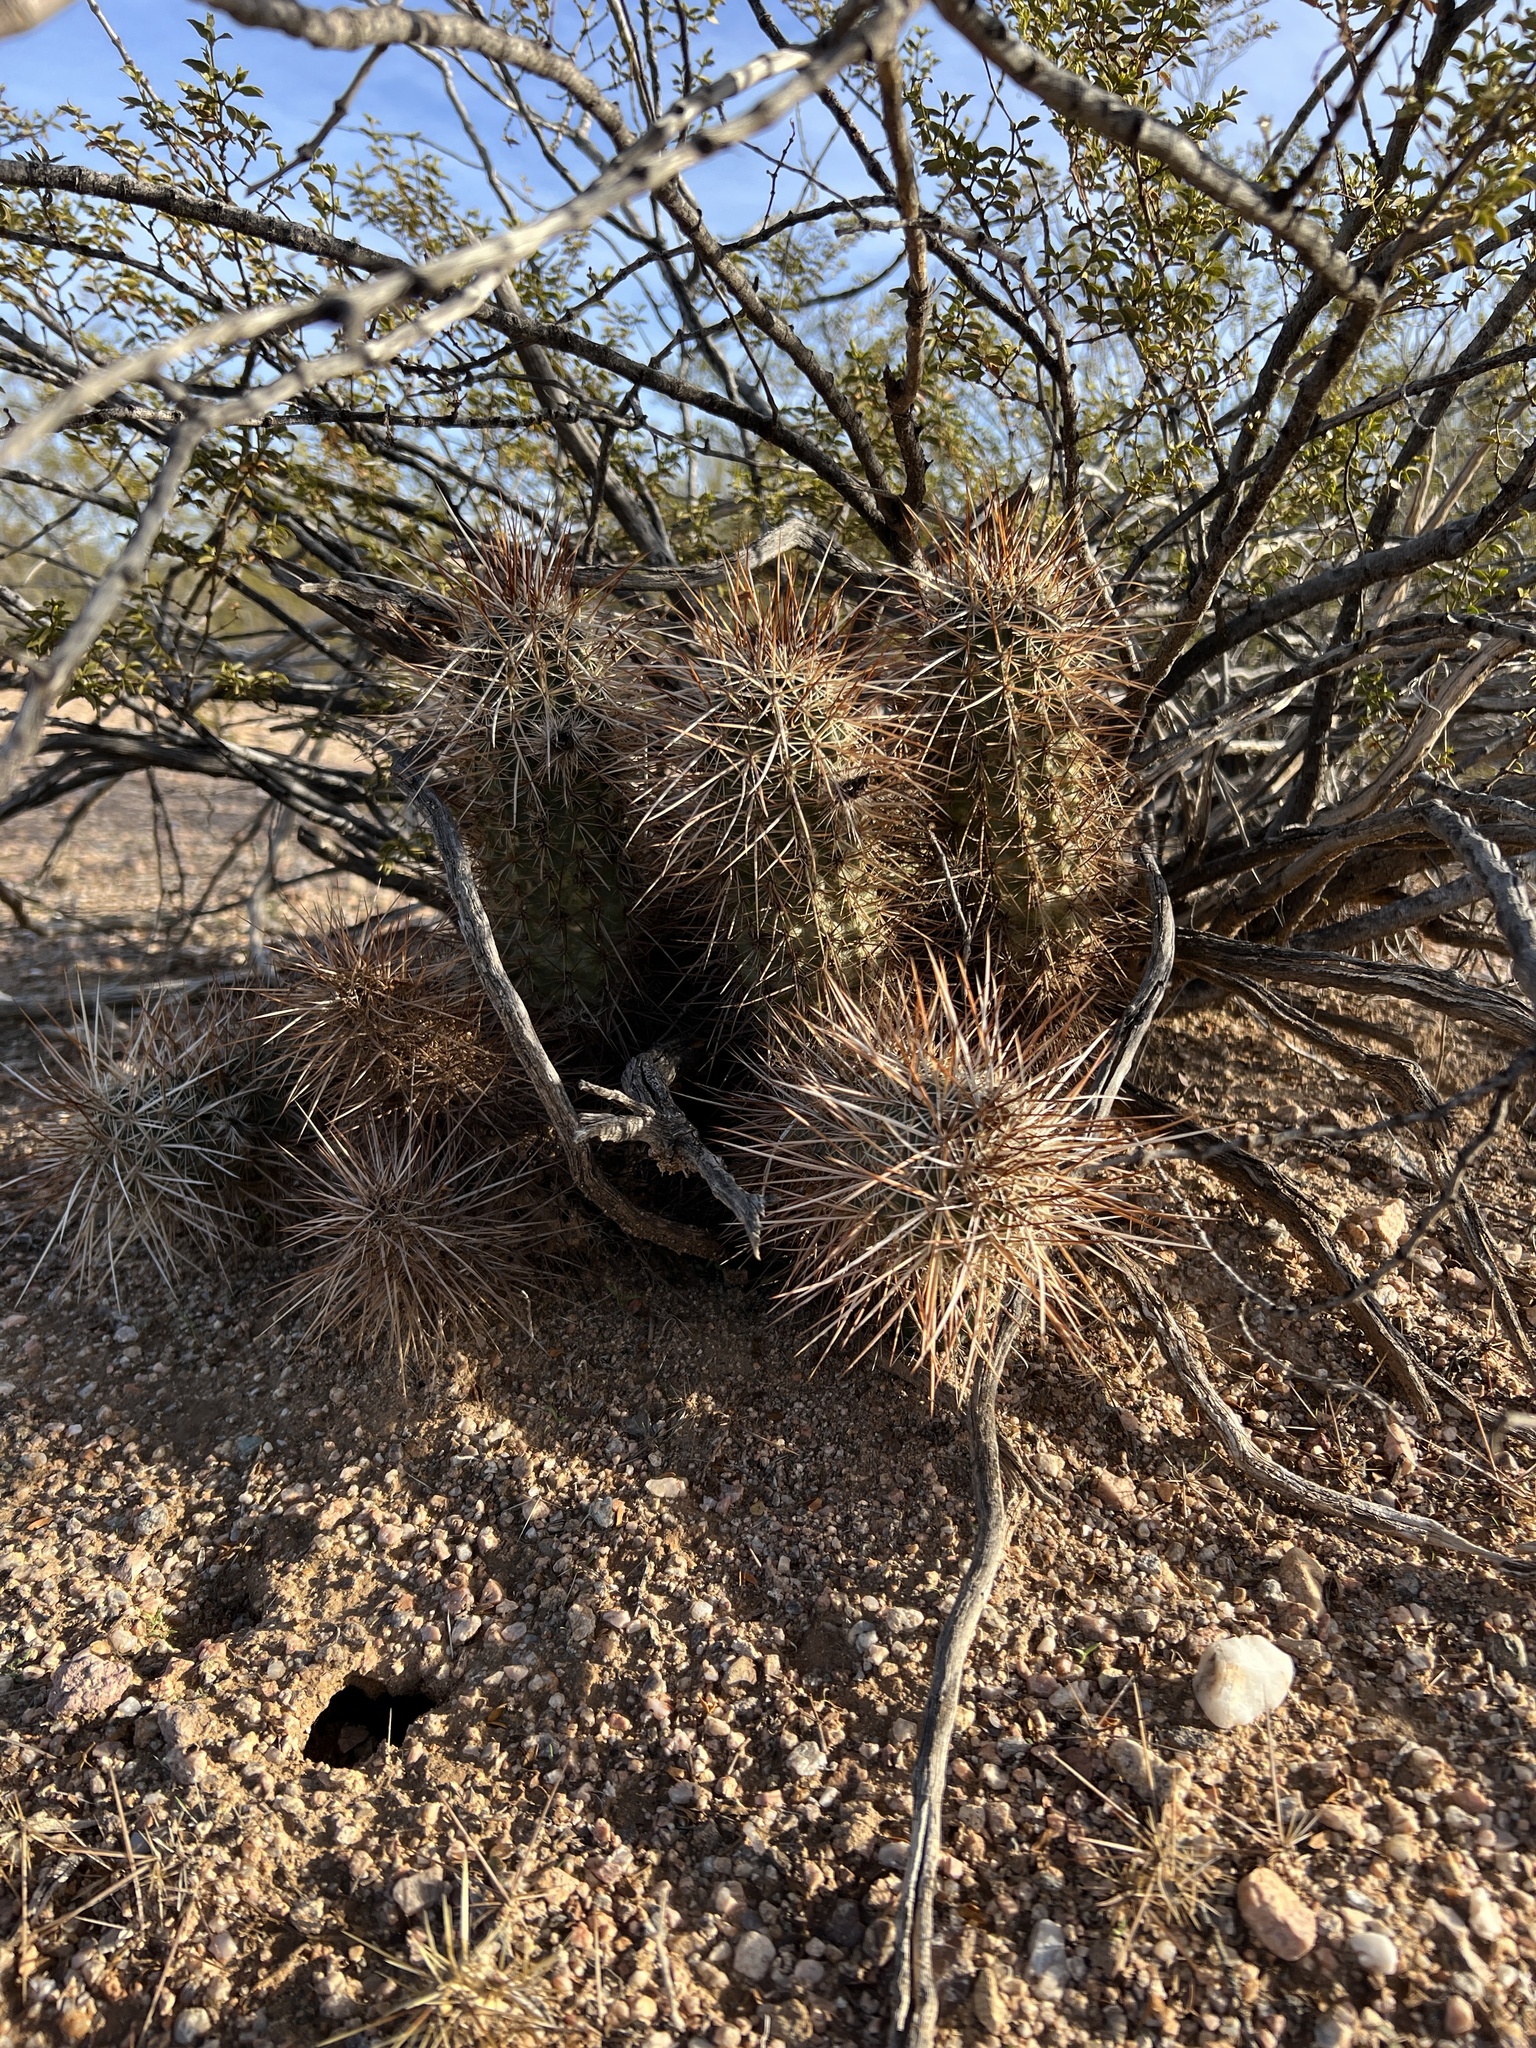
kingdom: Plantae
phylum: Tracheophyta
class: Magnoliopsida
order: Caryophyllales
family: Cactaceae
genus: Echinocereus
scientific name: Echinocereus engelmannii
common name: Engelmann's hedgehog cactus
